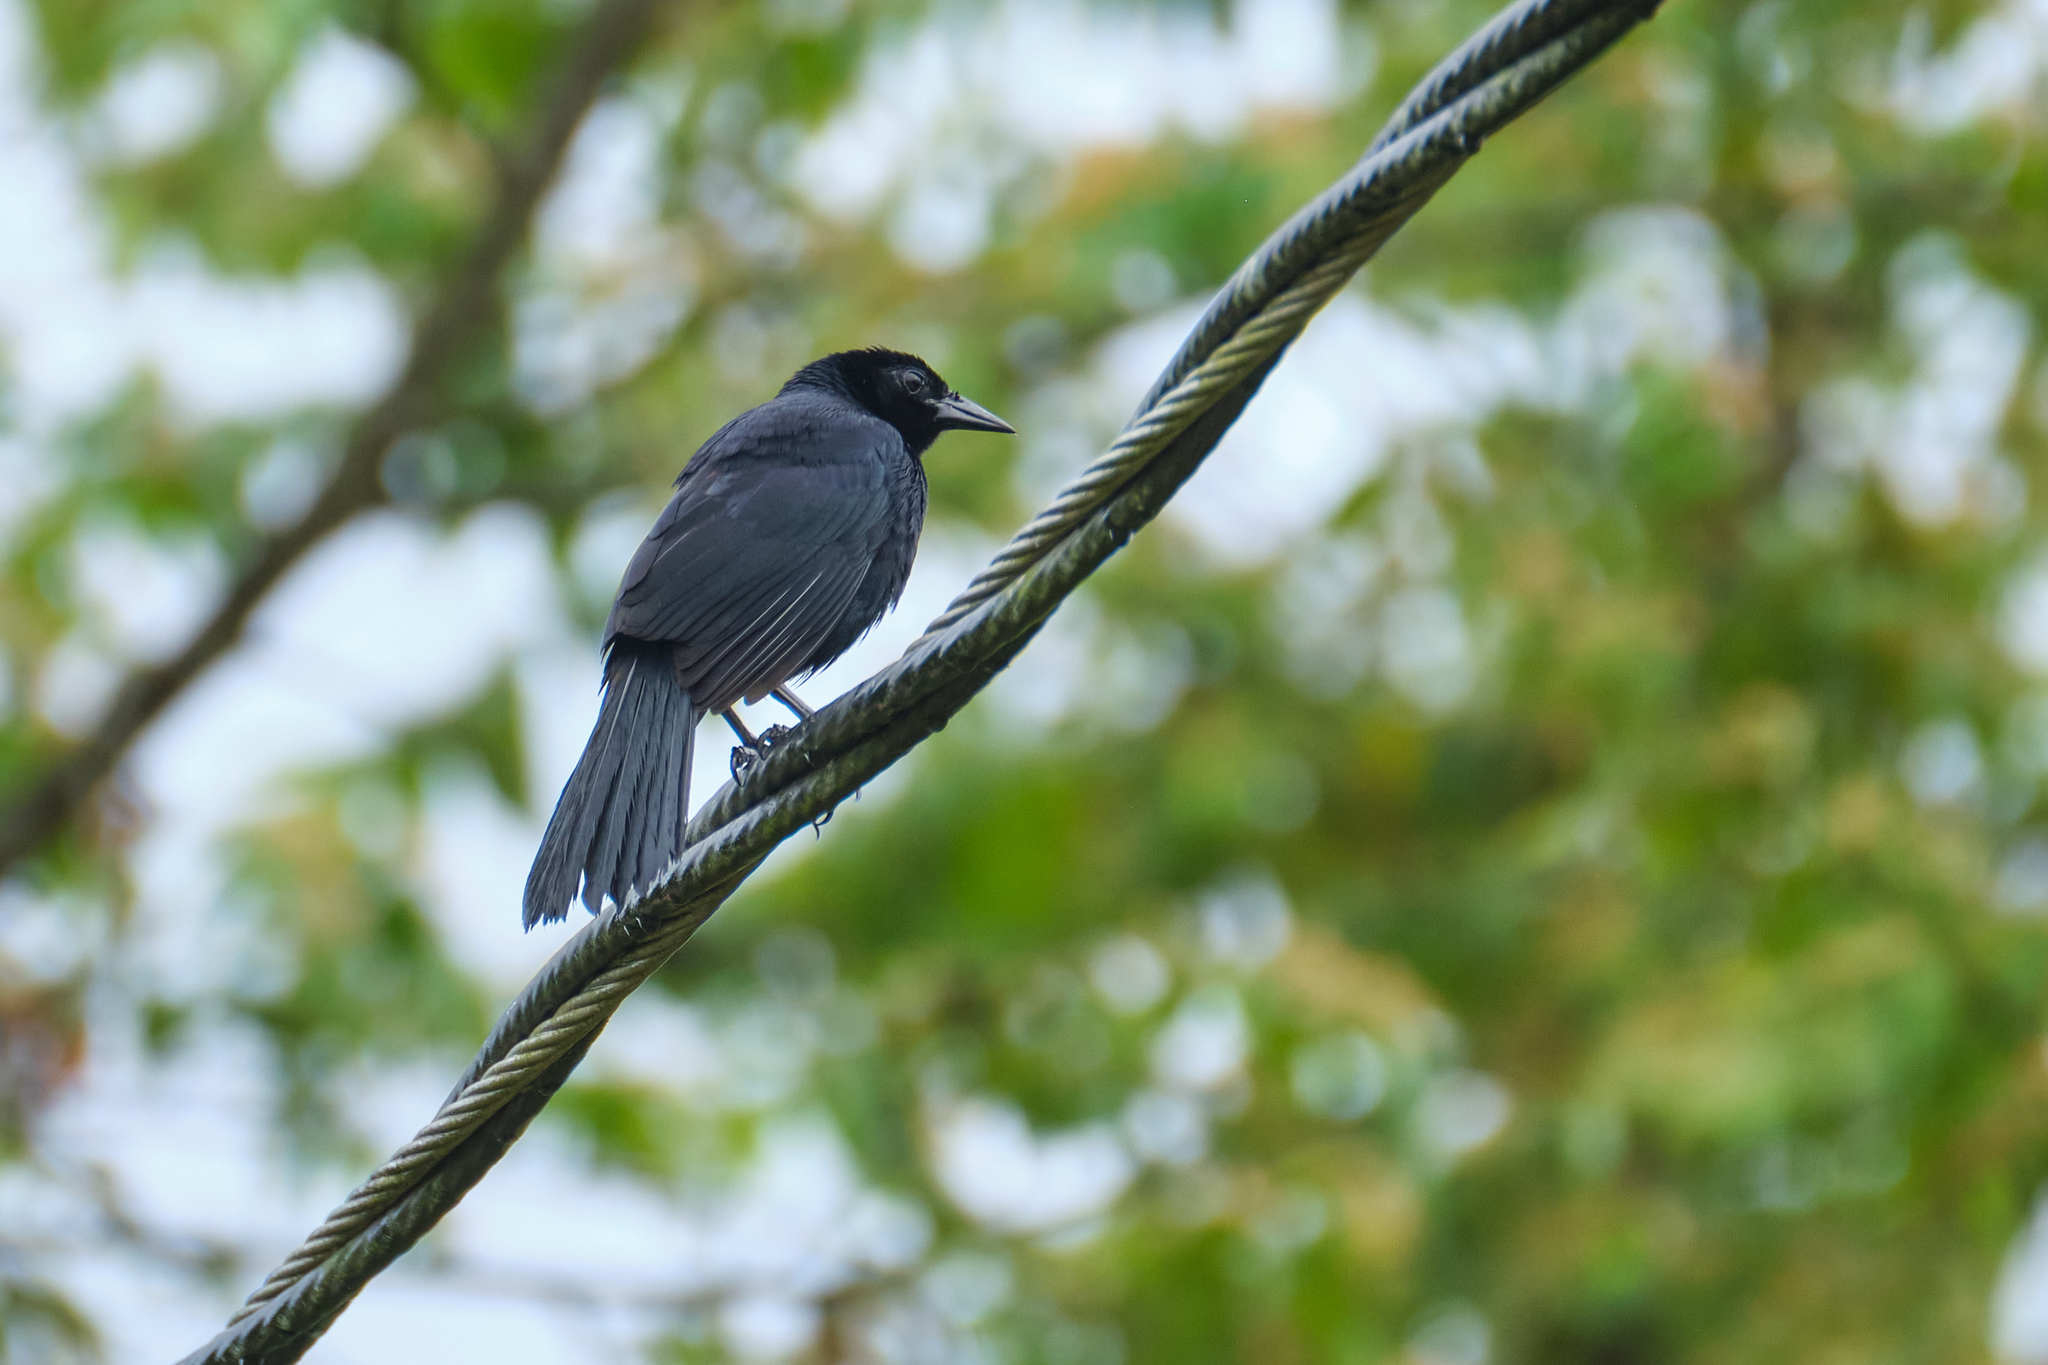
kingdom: Animalia
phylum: Chordata
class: Aves
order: Passeriformes
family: Icteridae
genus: Dives
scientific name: Dives dives
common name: Melodious blackbird
